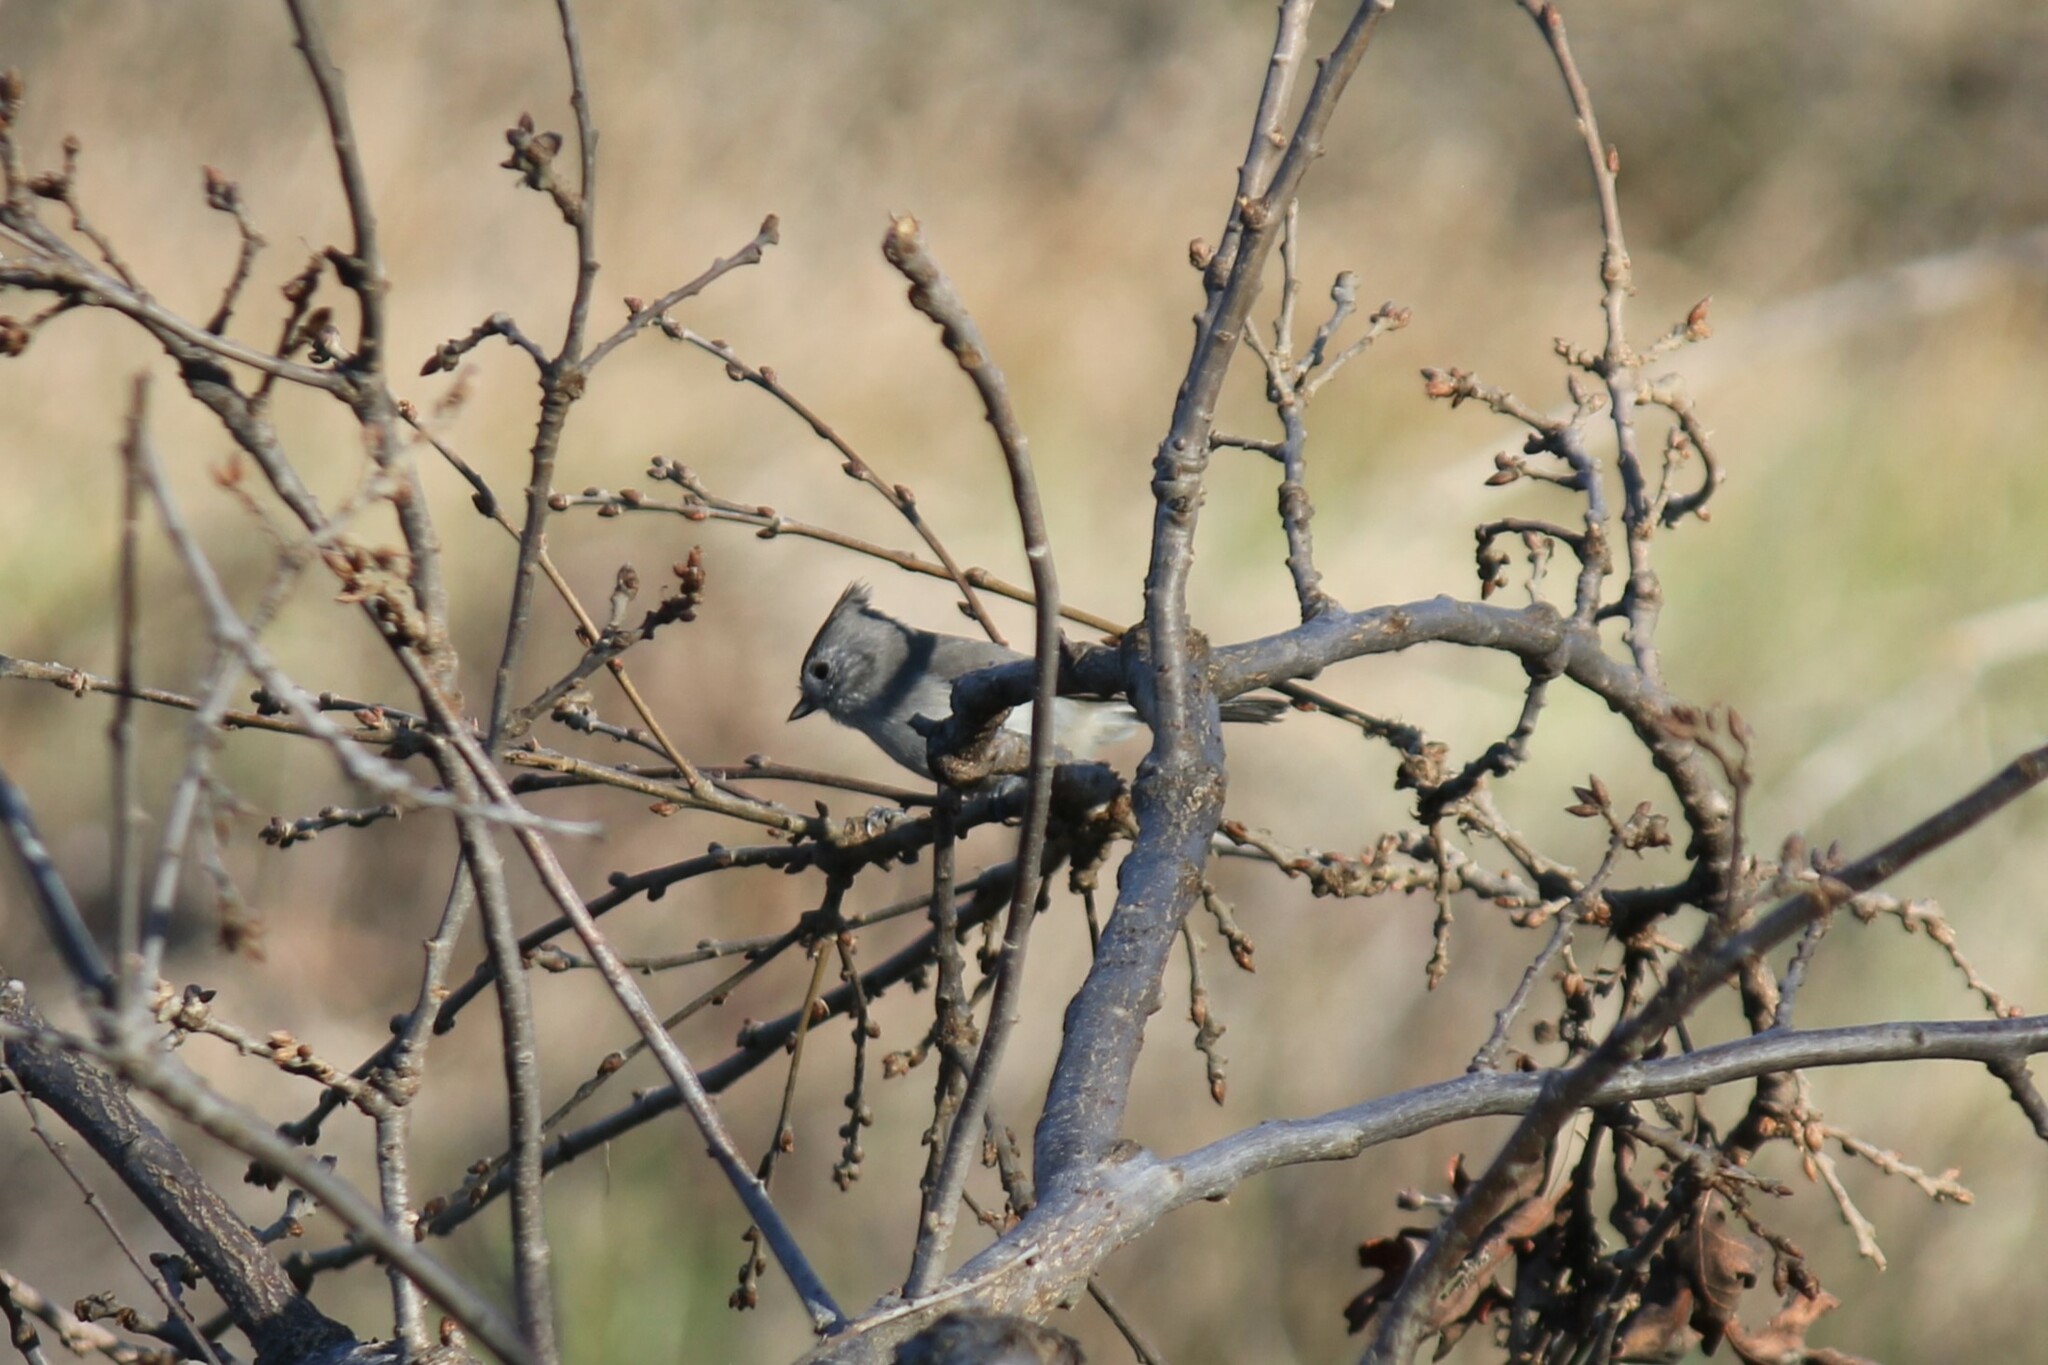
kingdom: Animalia
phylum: Chordata
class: Aves
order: Passeriformes
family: Paridae
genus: Baeolophus
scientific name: Baeolophus inornatus
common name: Oak titmouse
